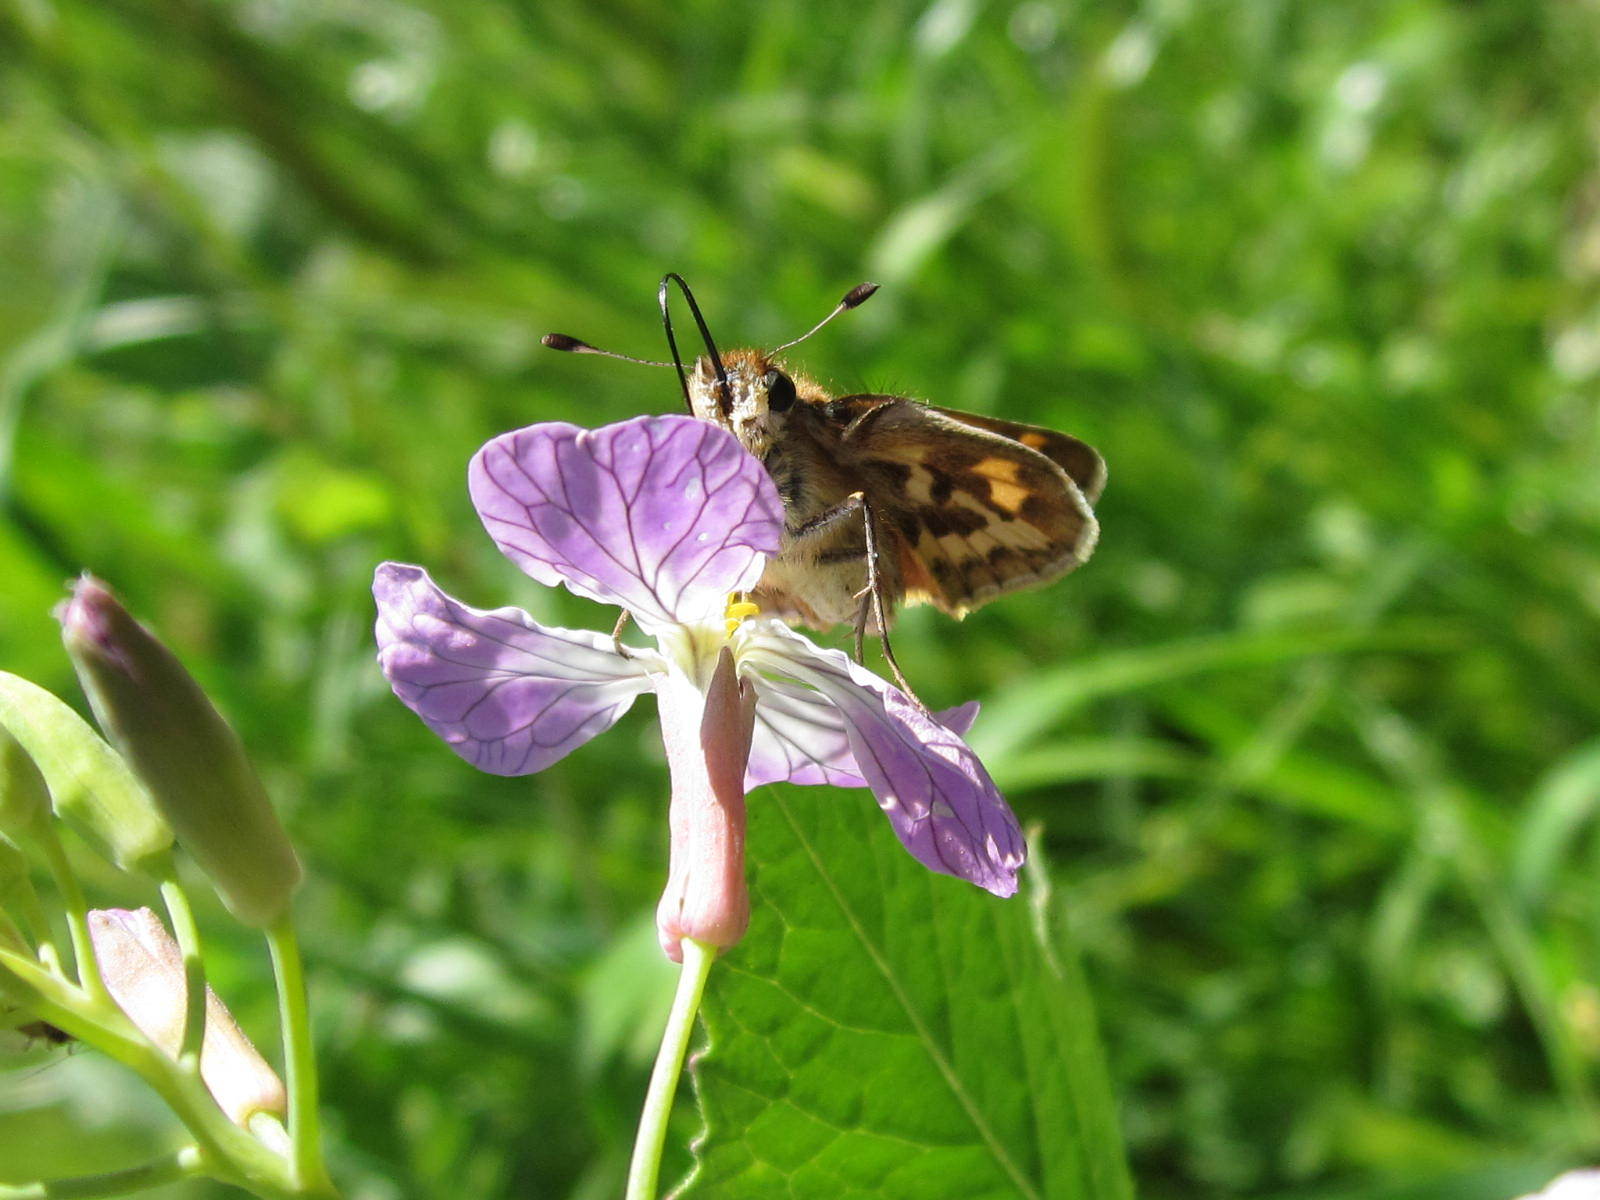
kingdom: Animalia
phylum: Arthropoda
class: Insecta
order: Lepidoptera
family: Hesperiidae
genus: Hylephila
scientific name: Hylephila signata
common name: Signata skipper
